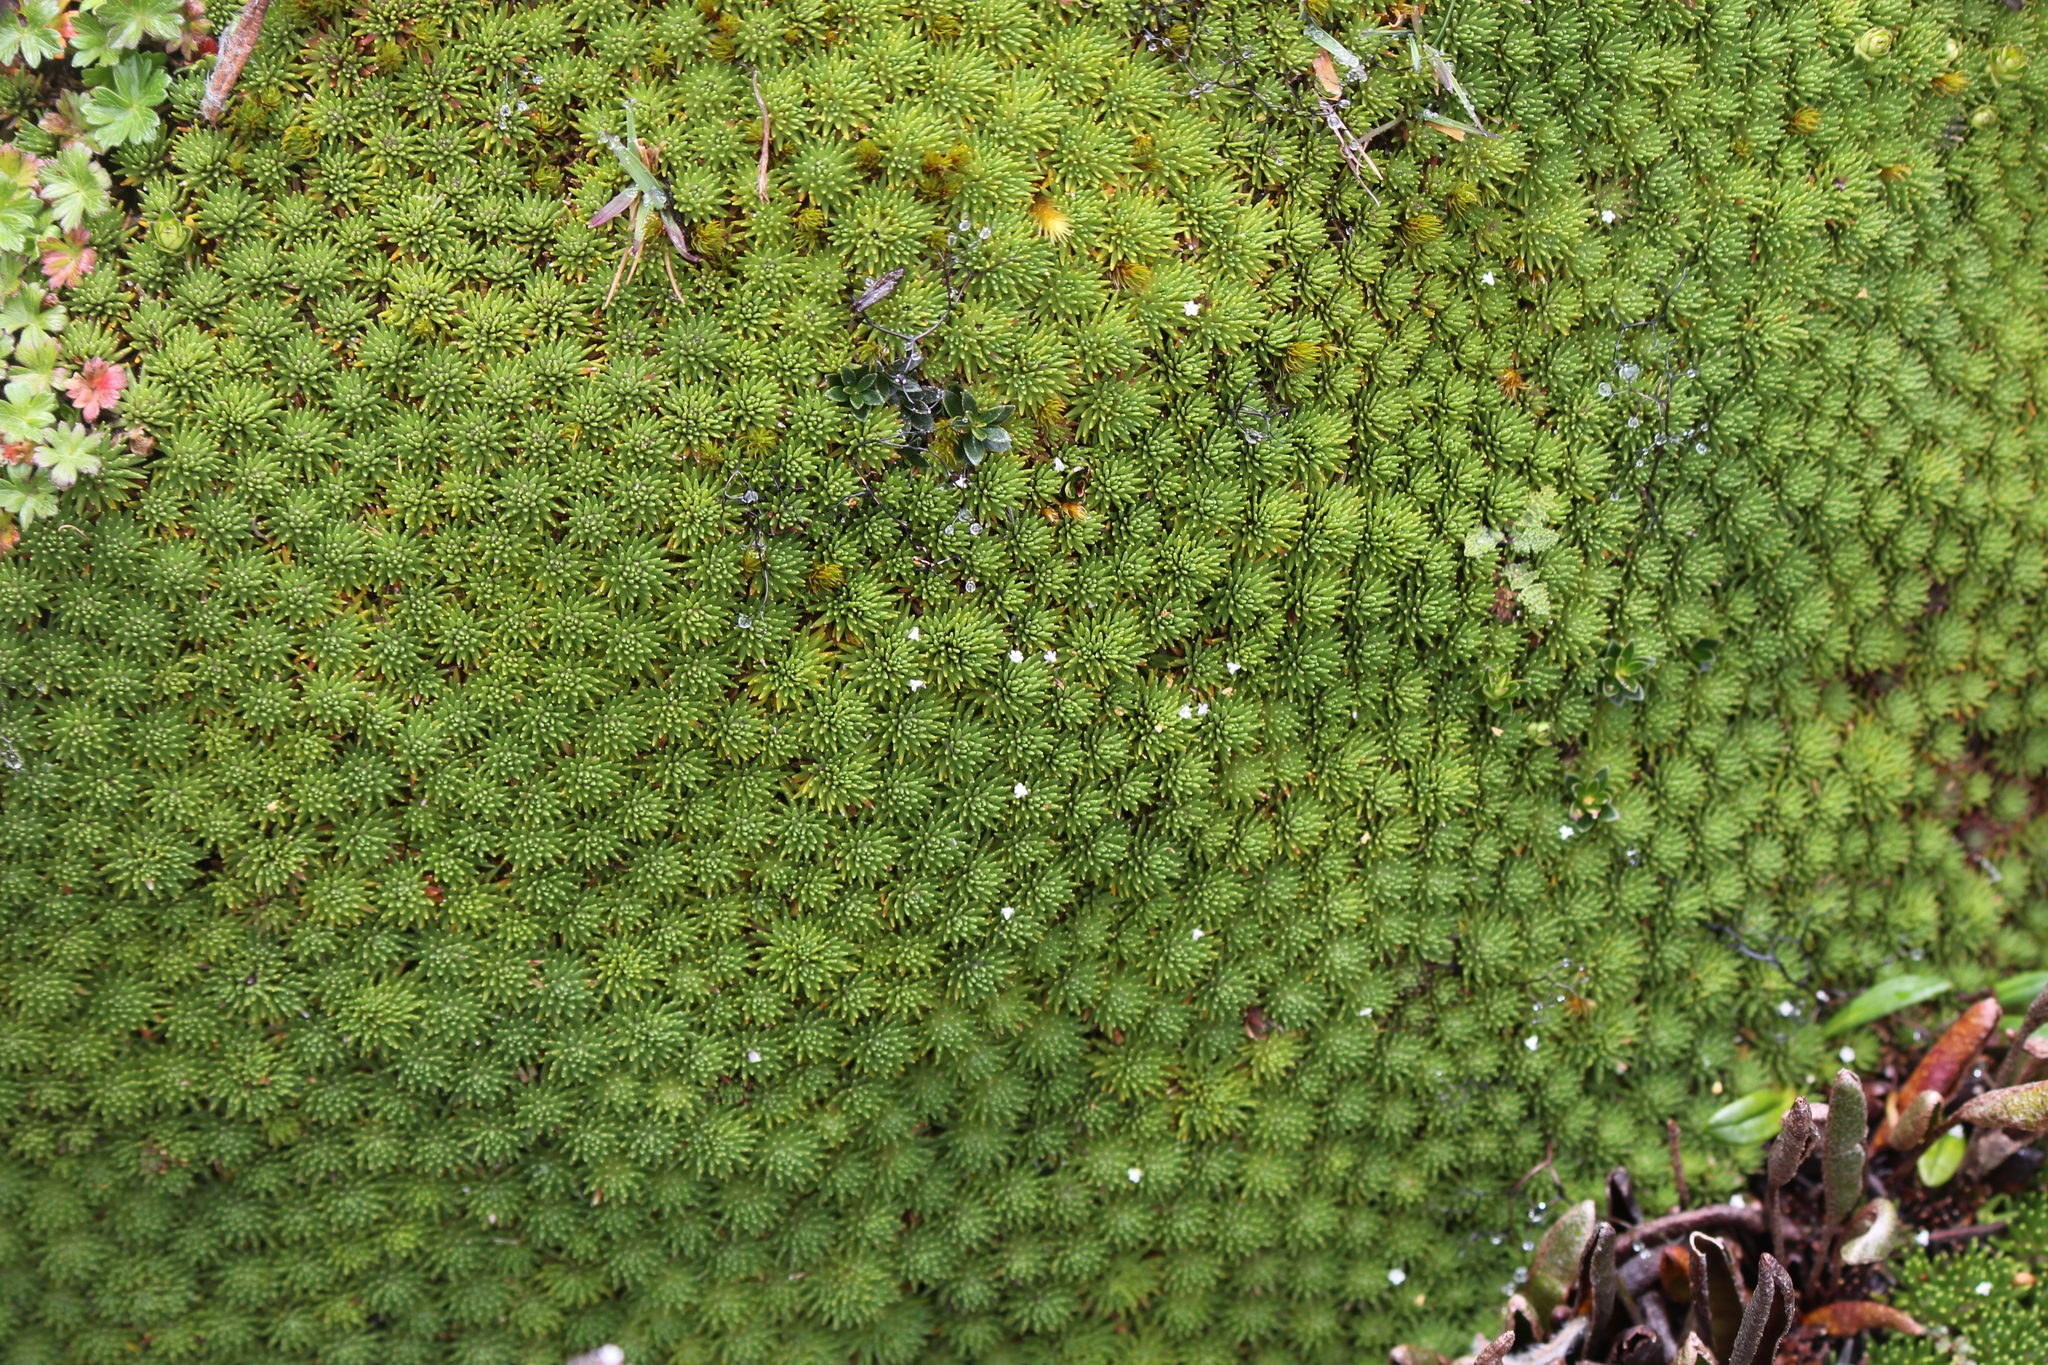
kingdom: Plantae
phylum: Tracheophyta
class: Magnoliopsida
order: Asterales
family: Asteraceae
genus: Werneria
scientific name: Werneria humilis
